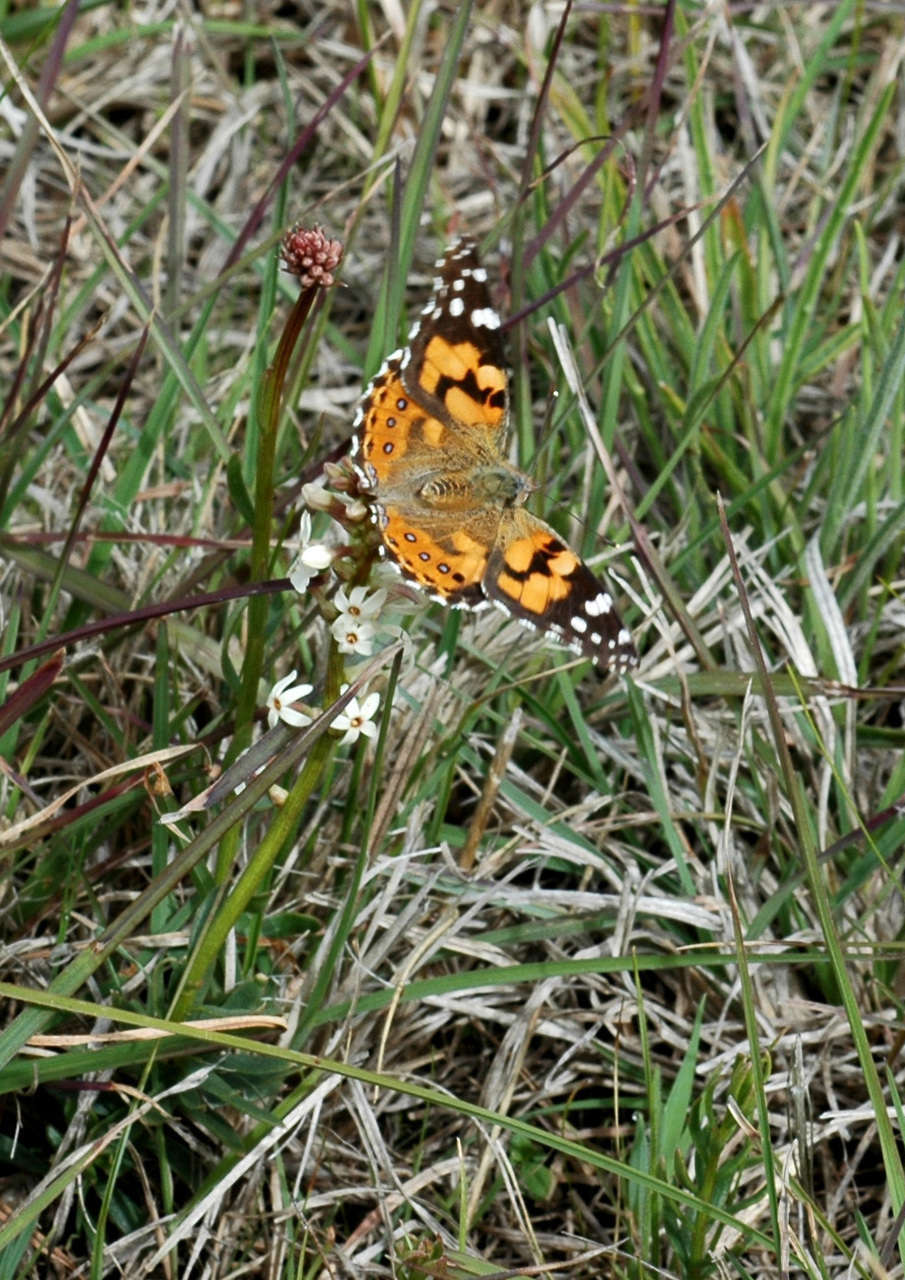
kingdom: Animalia
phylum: Arthropoda
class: Insecta
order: Lepidoptera
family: Nymphalidae
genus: Vanessa
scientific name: Vanessa kershawi
